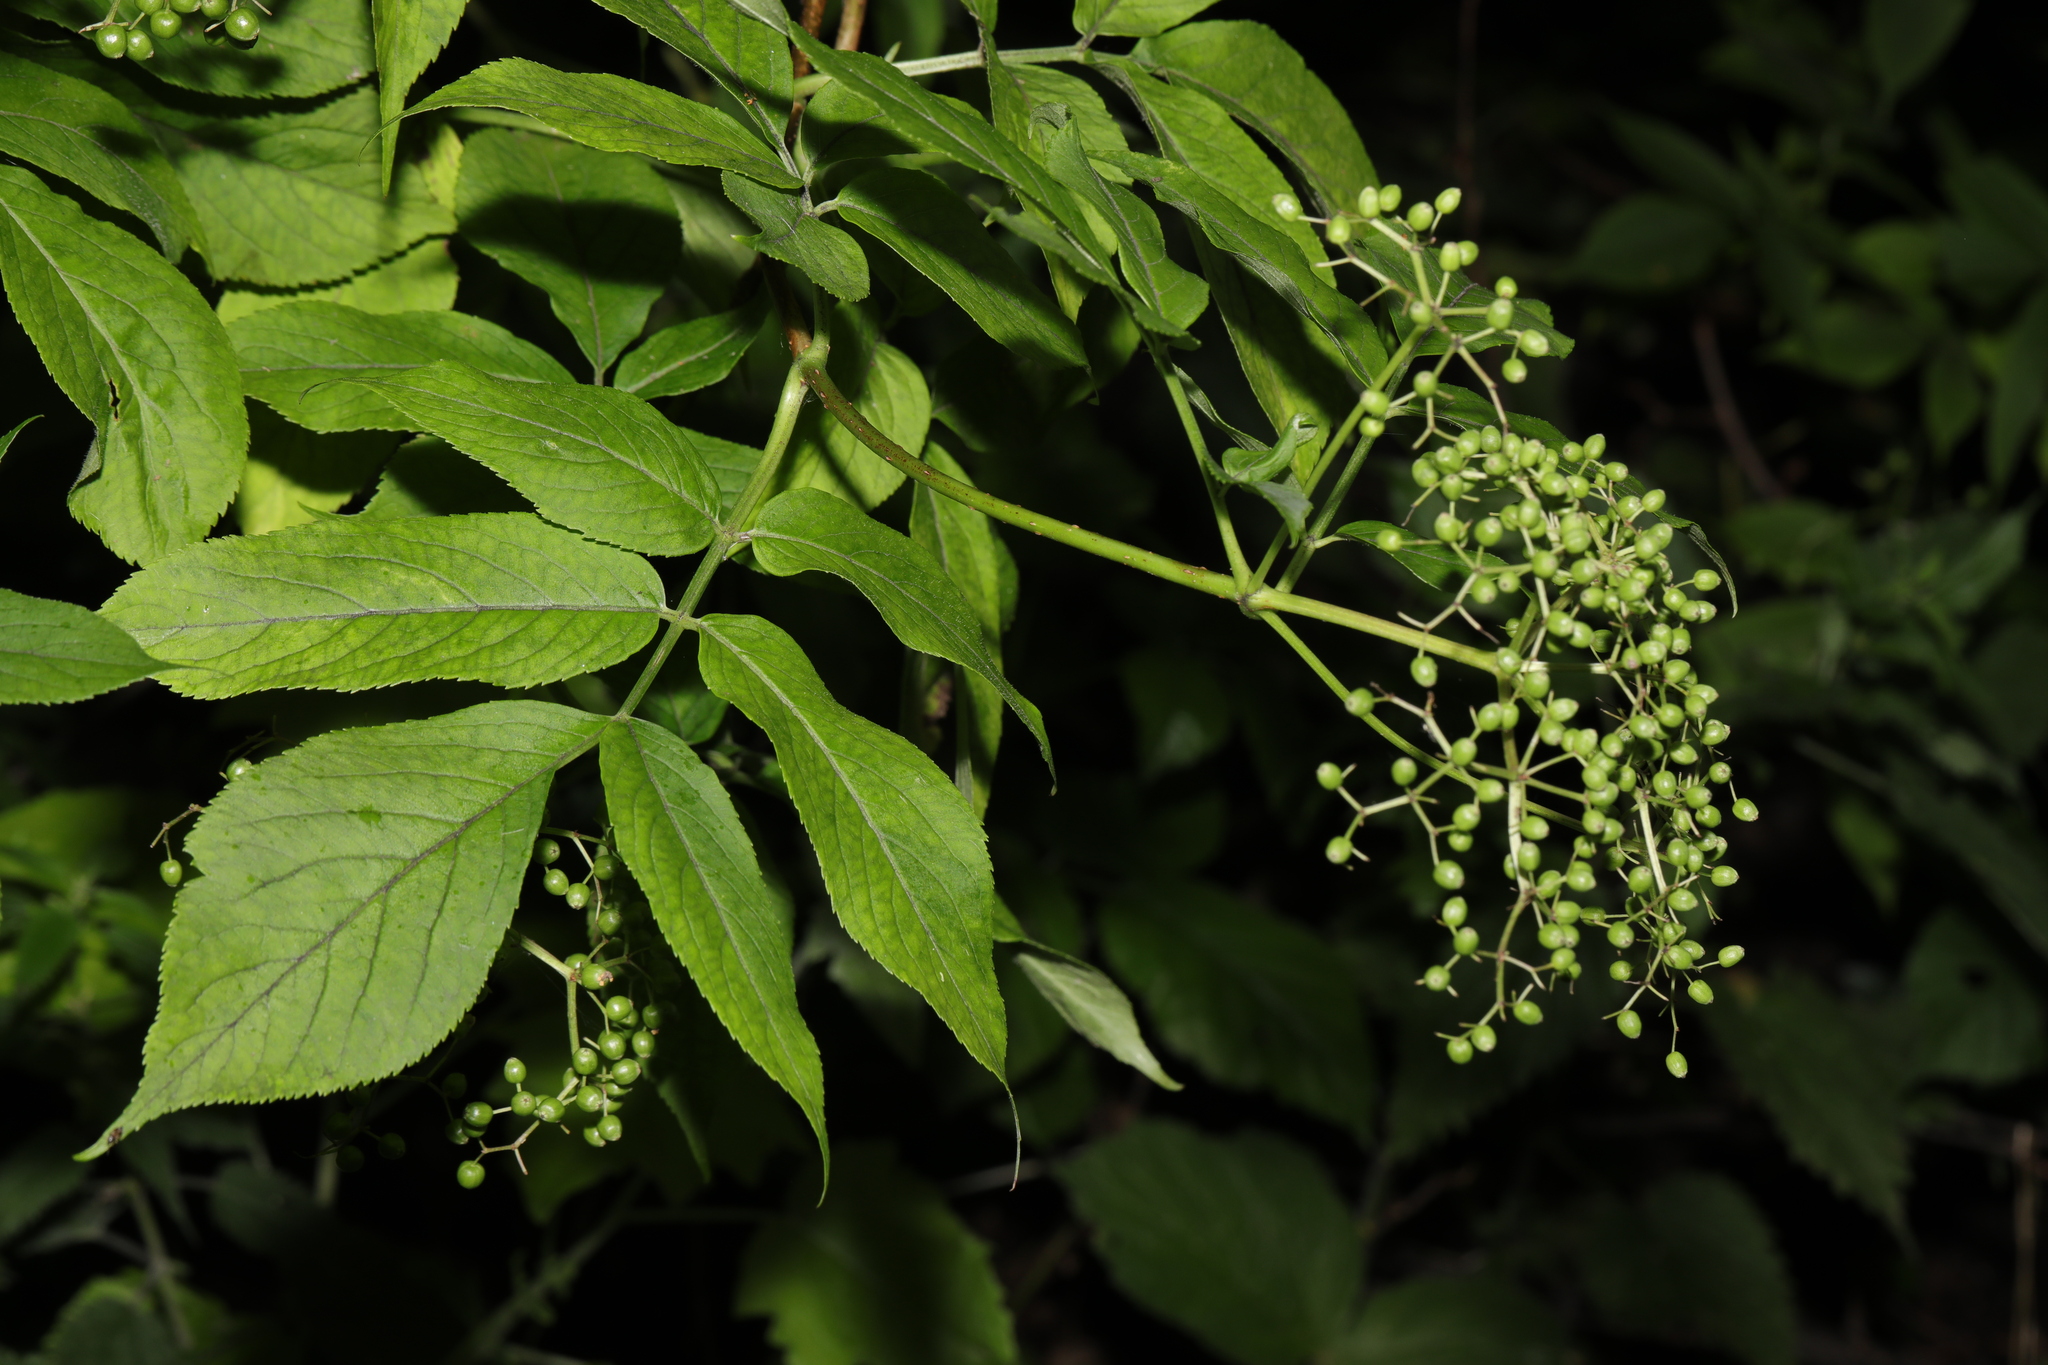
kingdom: Plantae
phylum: Tracheophyta
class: Magnoliopsida
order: Dipsacales
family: Viburnaceae
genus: Sambucus
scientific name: Sambucus nigra
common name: Elder
